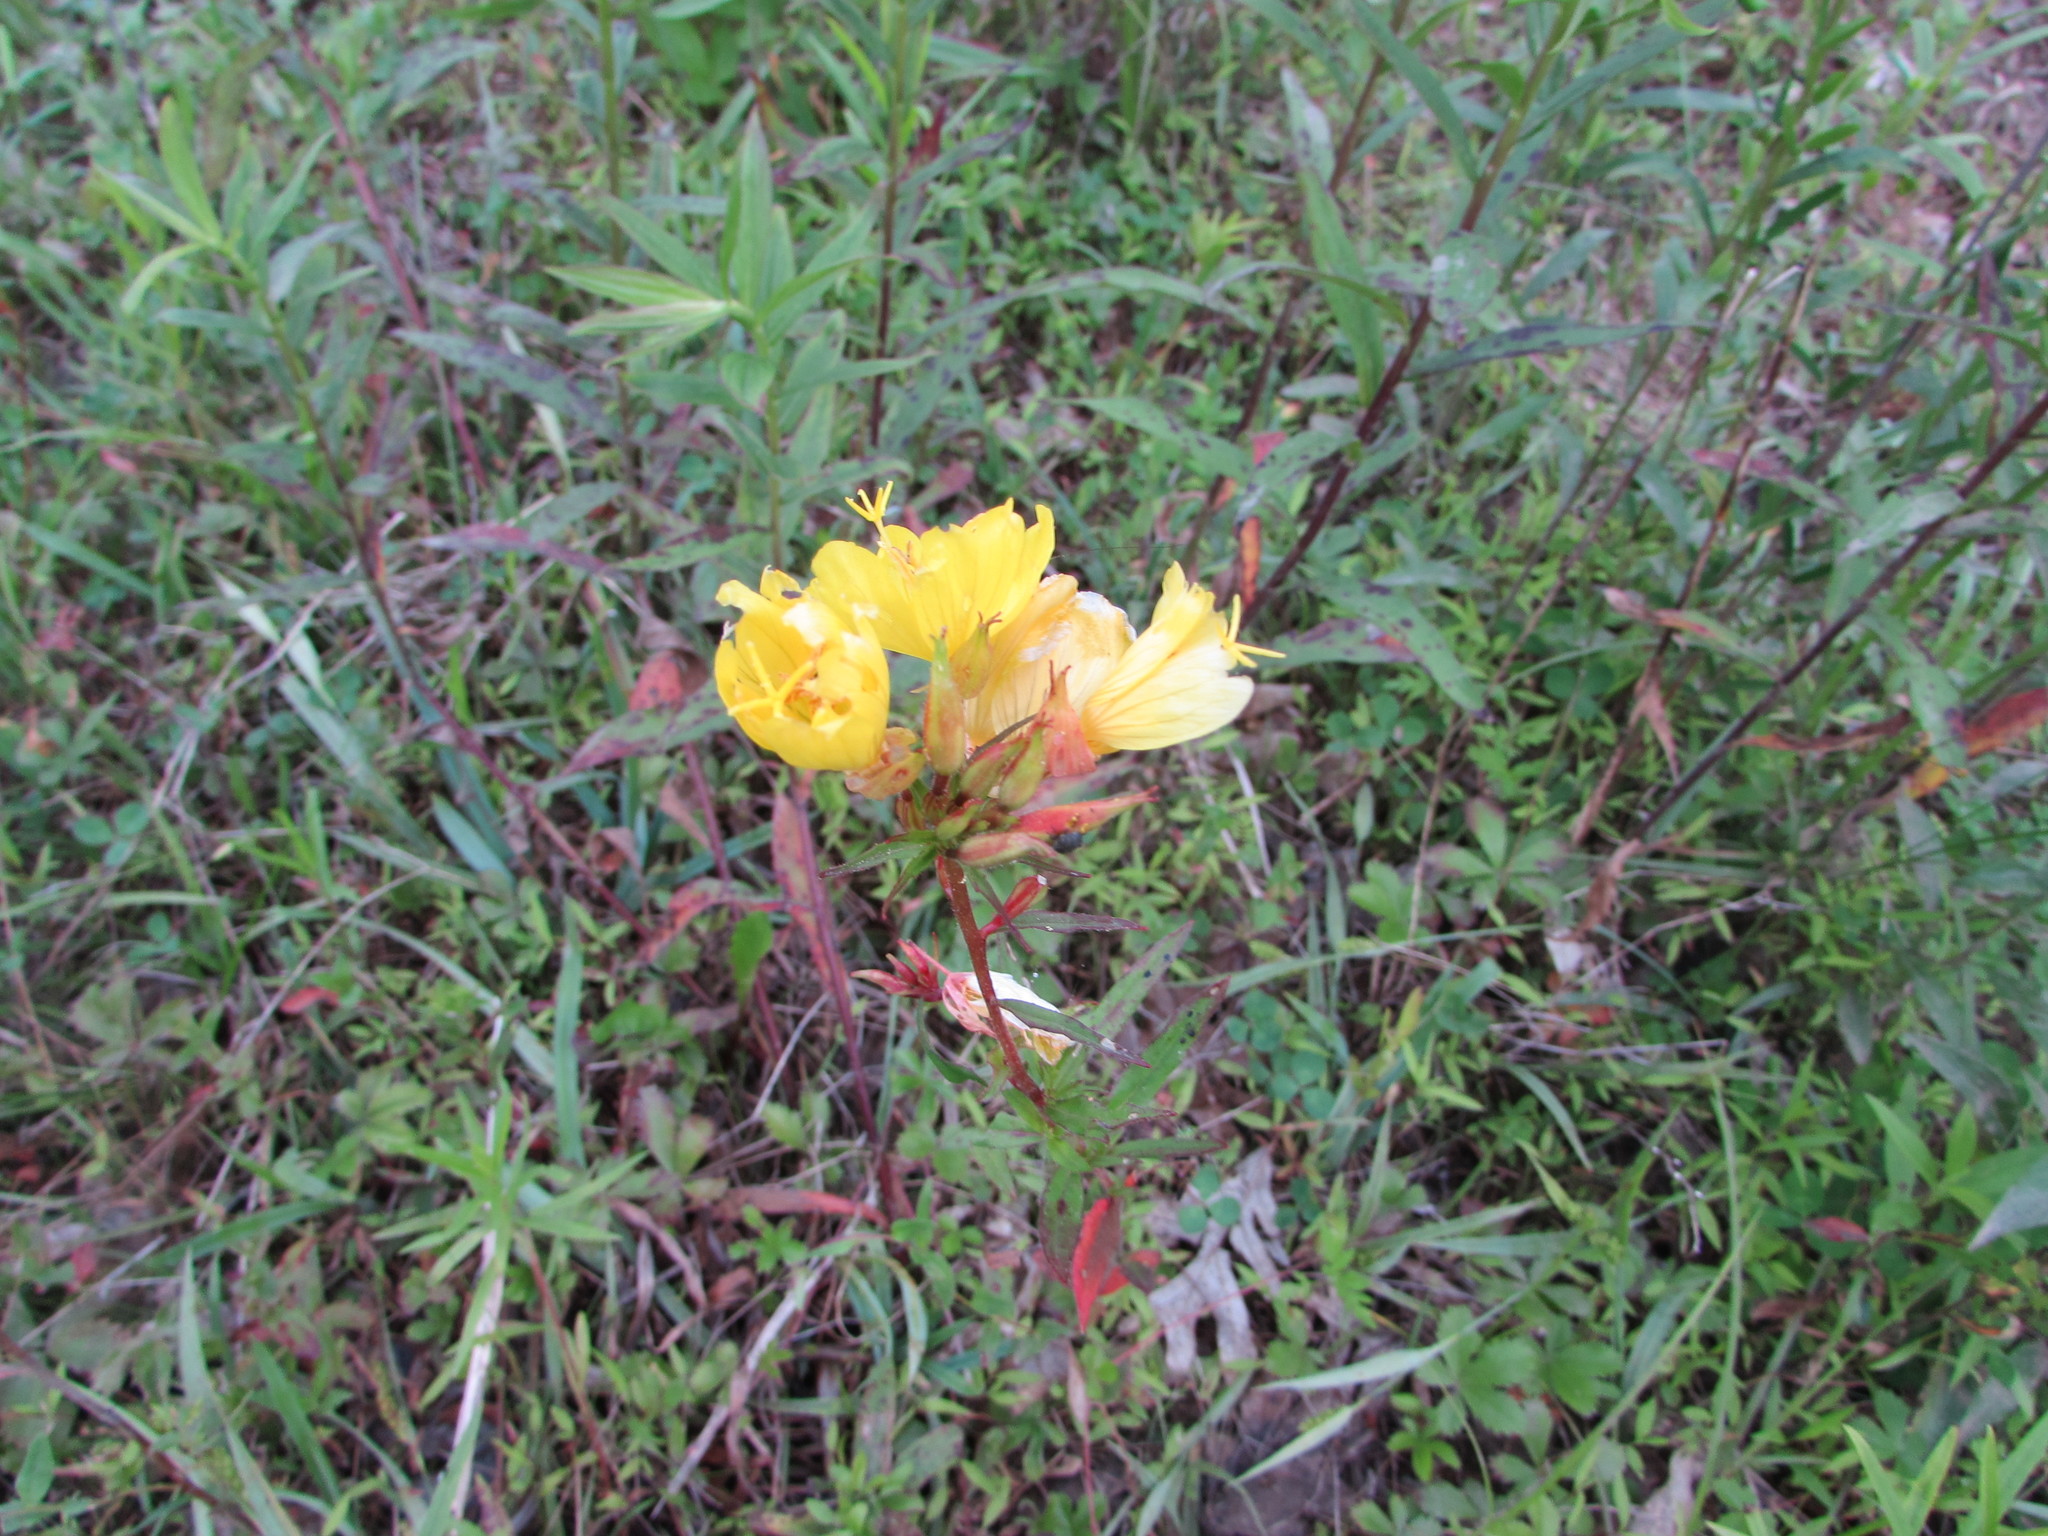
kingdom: Plantae
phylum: Tracheophyta
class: Magnoliopsida
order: Myrtales
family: Onagraceae
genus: Oenothera
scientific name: Oenothera fruticosa
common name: Southern sundrops
